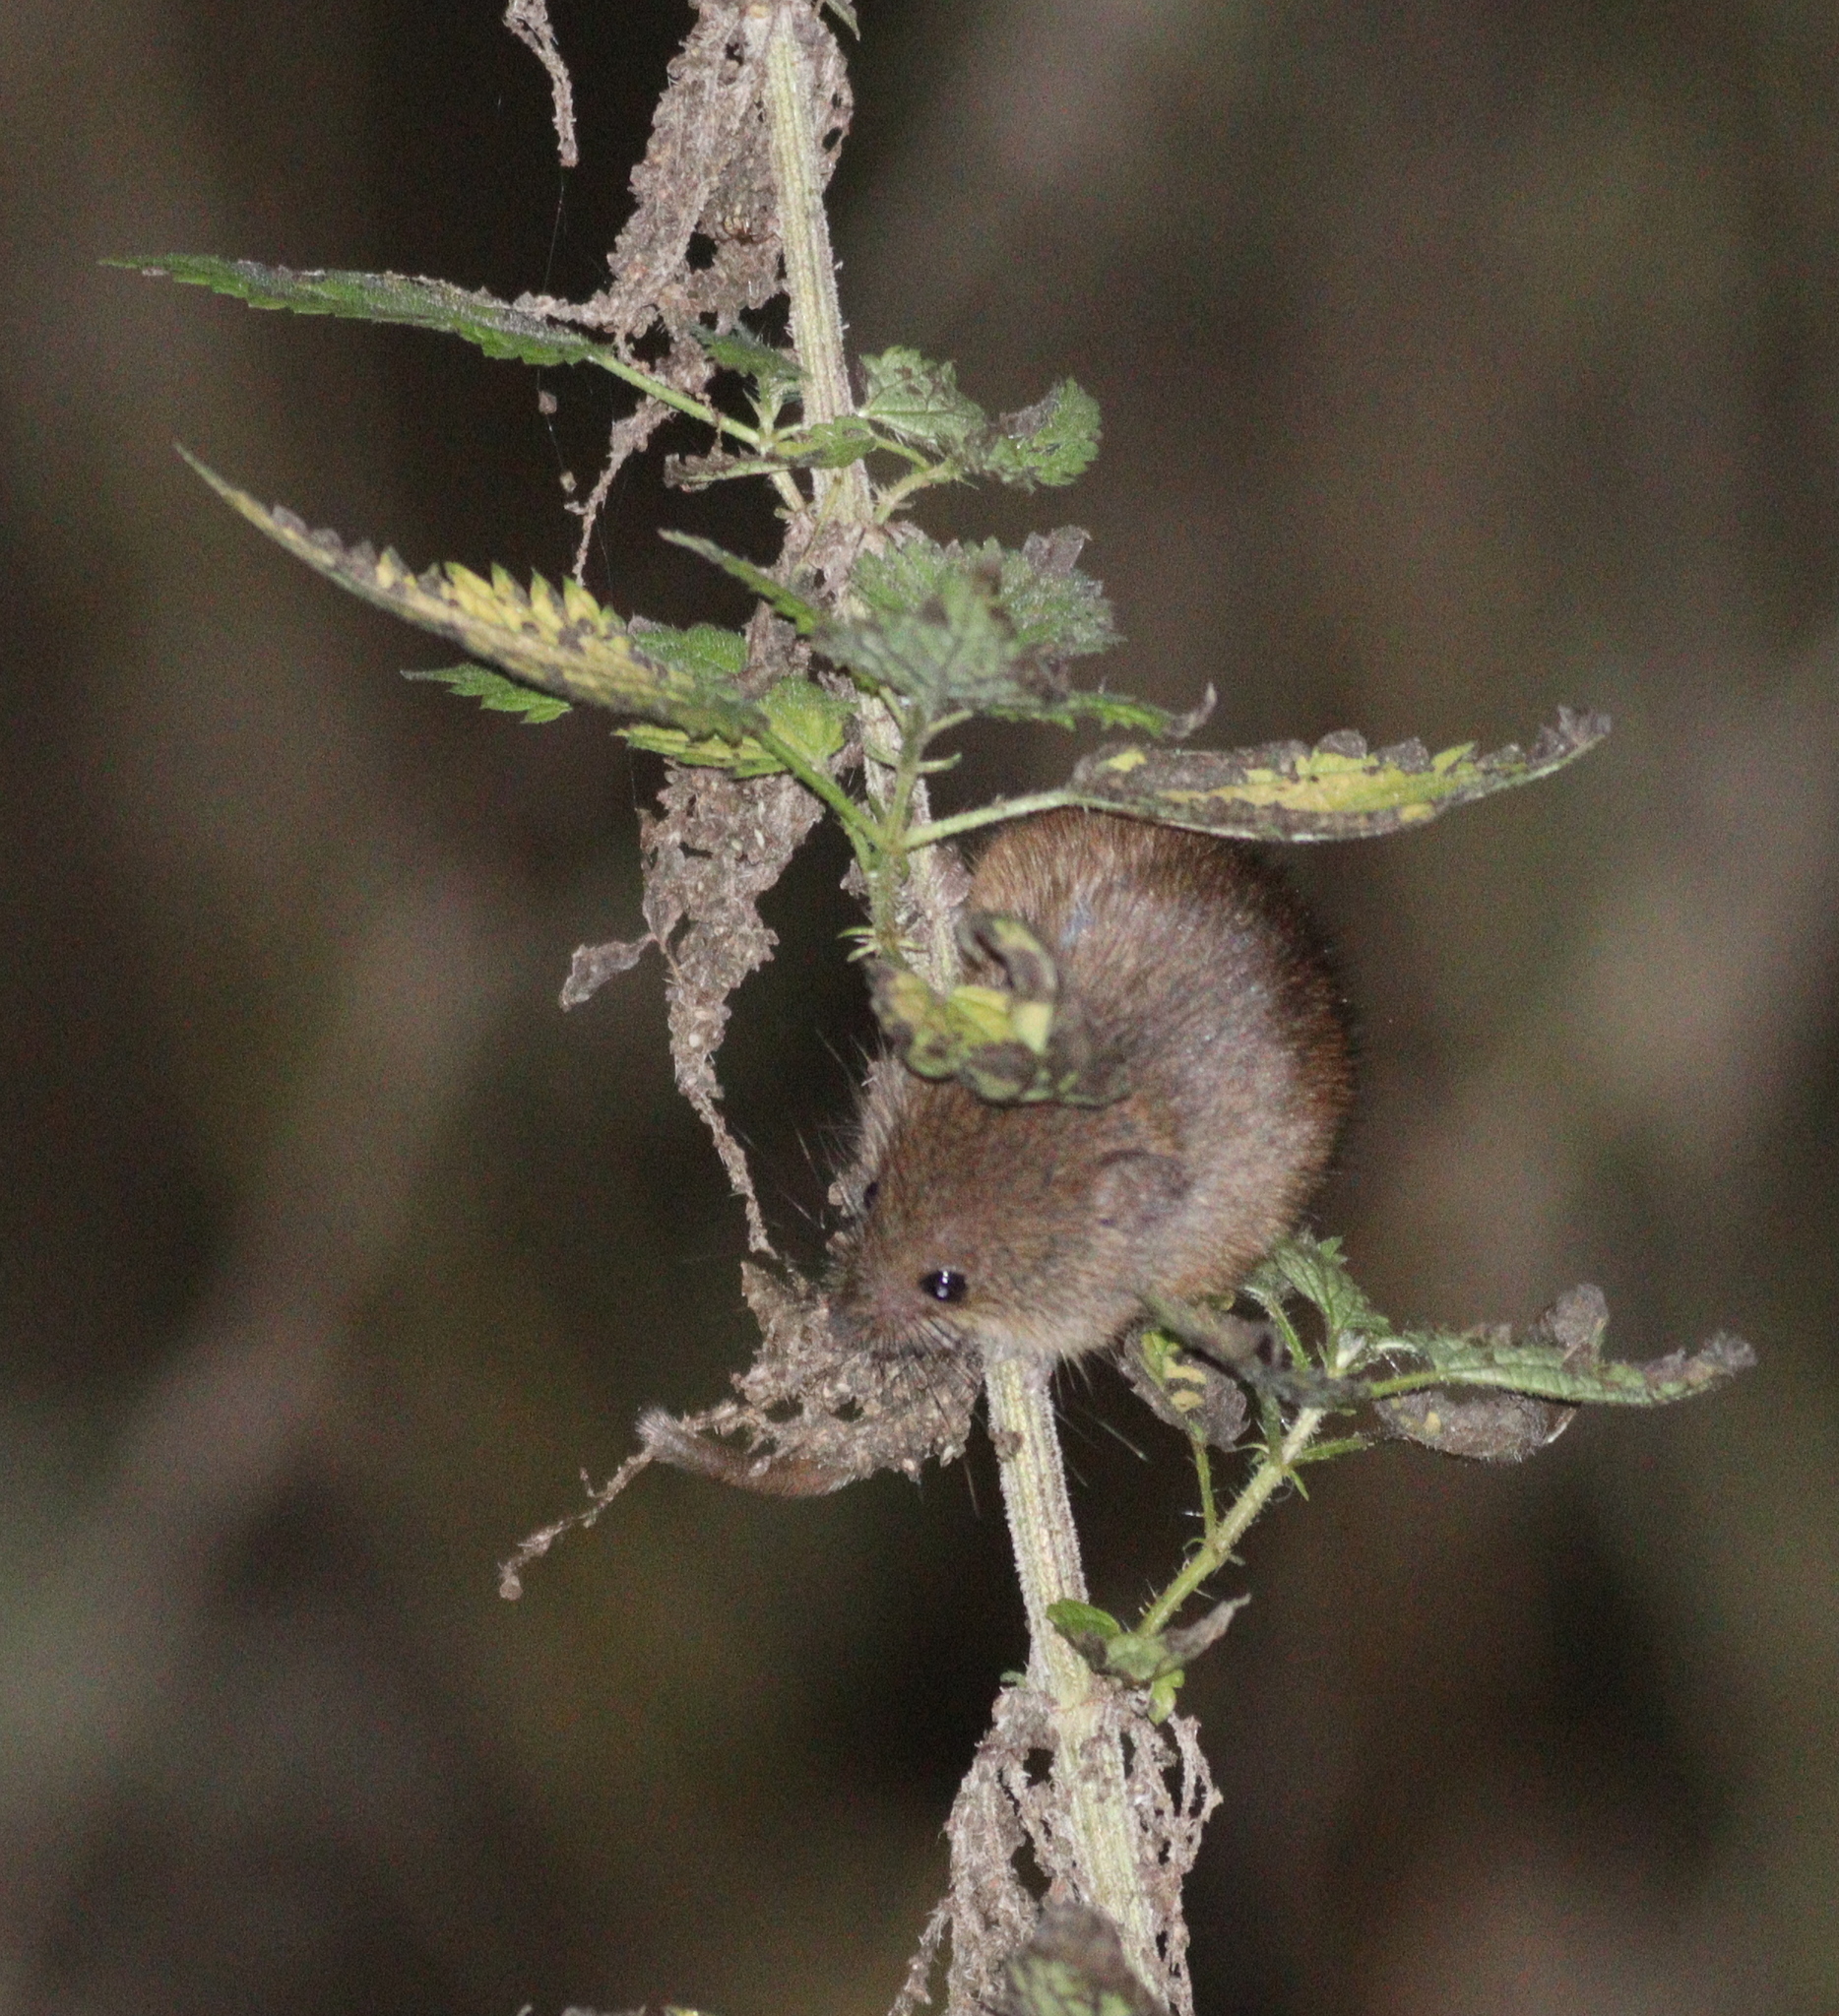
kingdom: Animalia
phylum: Chordata
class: Mammalia
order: Rodentia
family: Muridae
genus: Micromys
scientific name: Micromys minutus
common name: Harvest mouse
